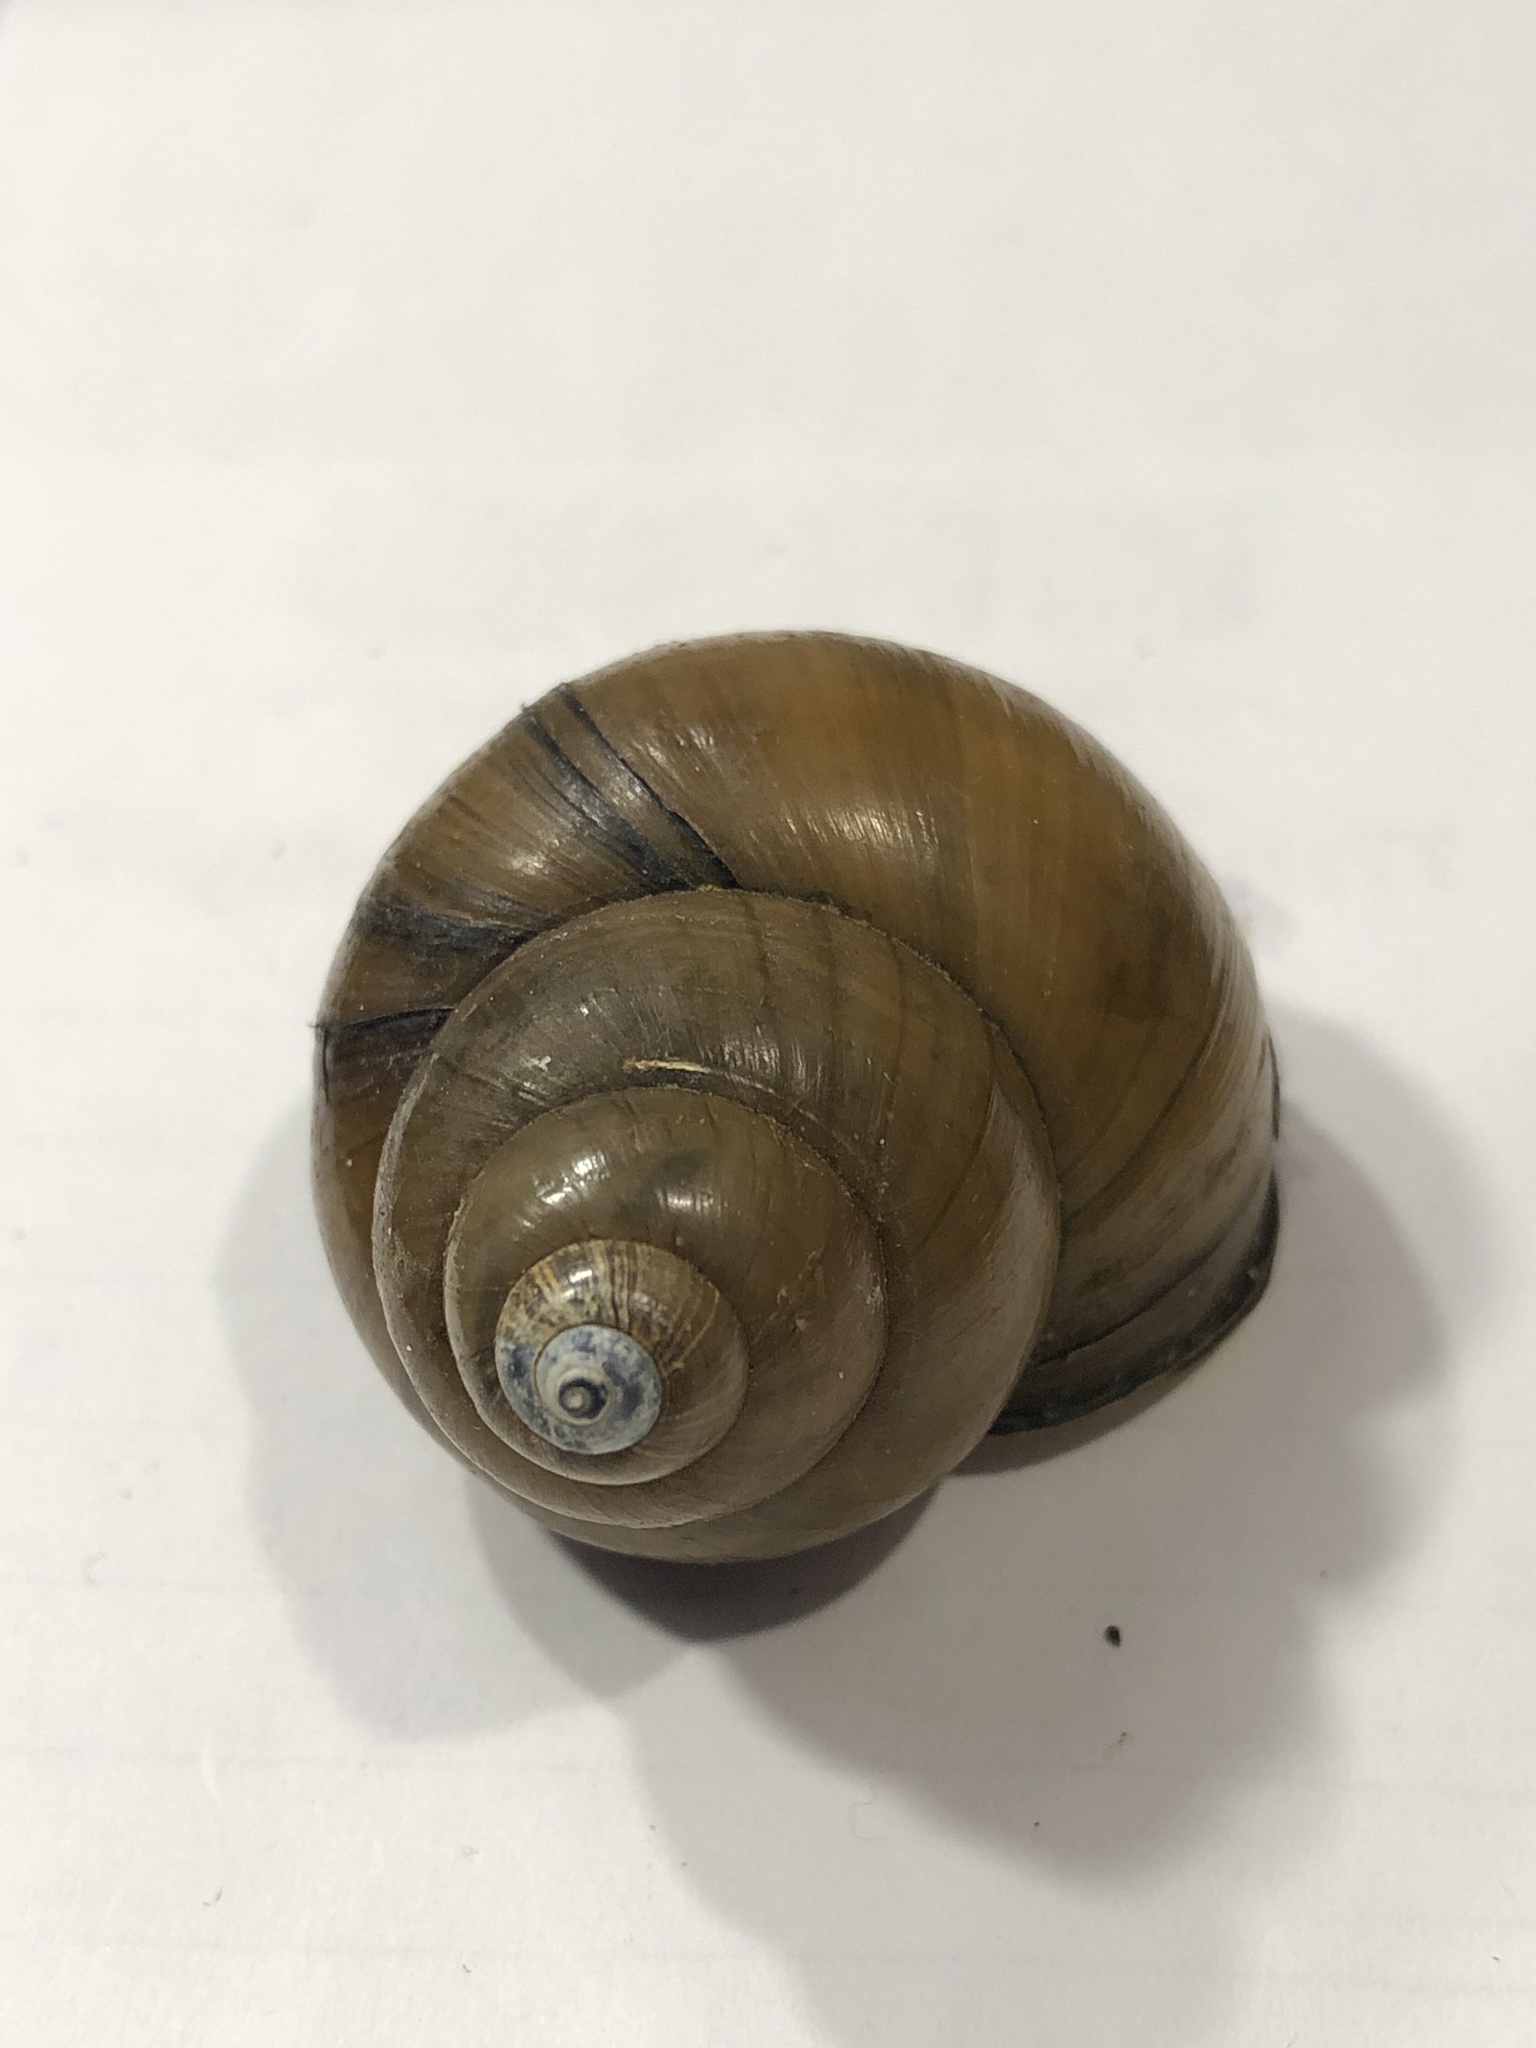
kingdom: Animalia
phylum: Mollusca
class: Gastropoda
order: Architaenioglossa
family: Viviparidae
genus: Cipangopaludina
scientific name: Cipangopaludina chinensis
